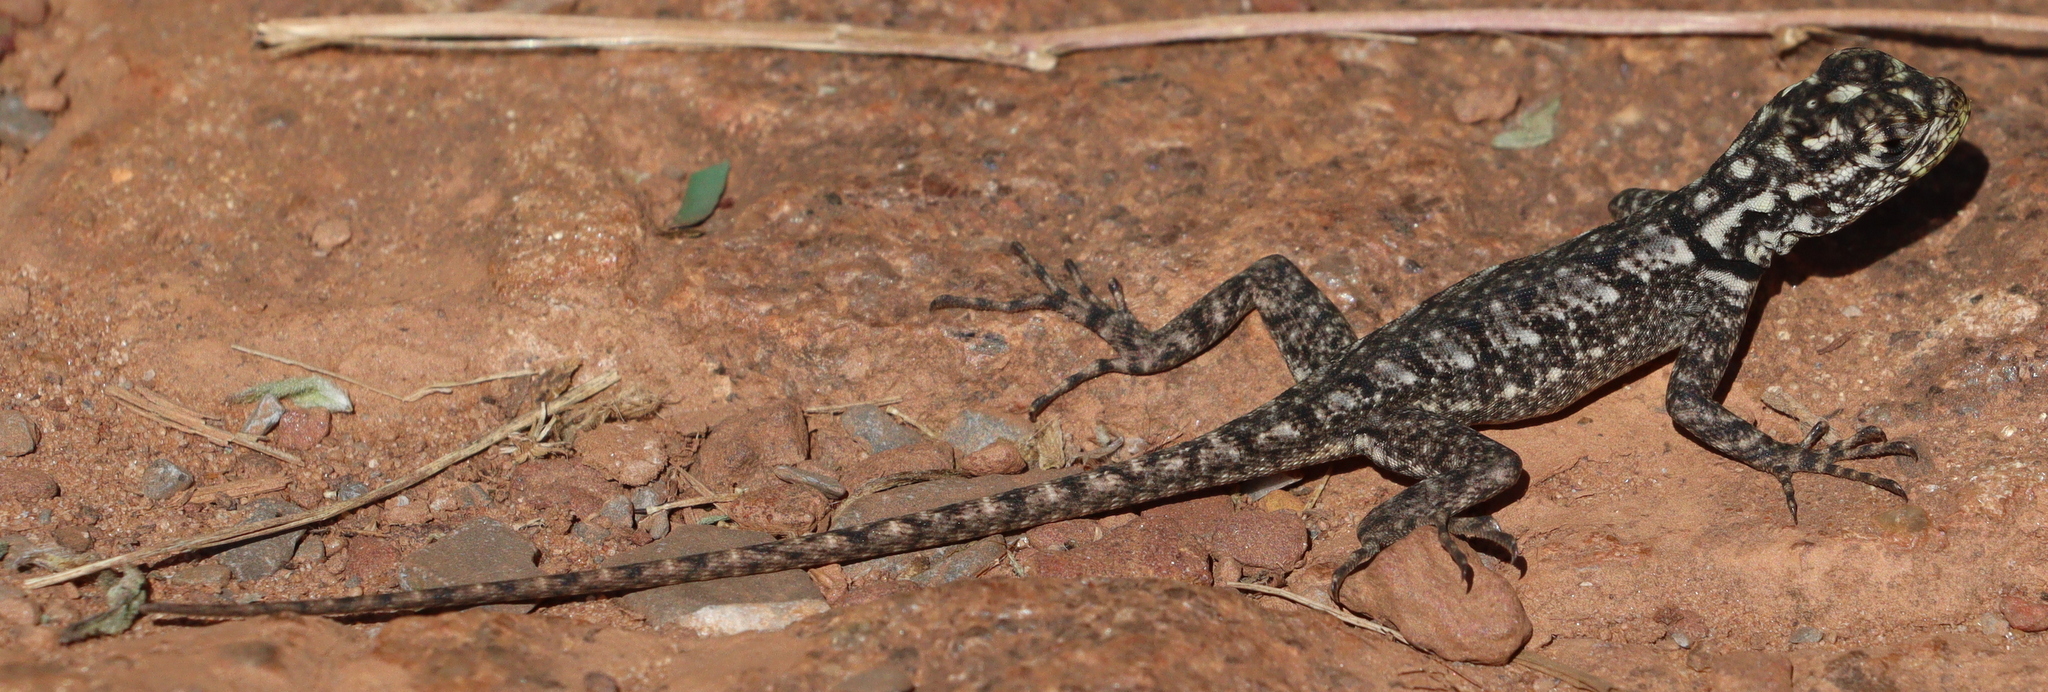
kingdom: Animalia
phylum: Chordata
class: Squamata
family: Tropiduridae
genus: Tropidurus
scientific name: Tropidurus lagunablanca
